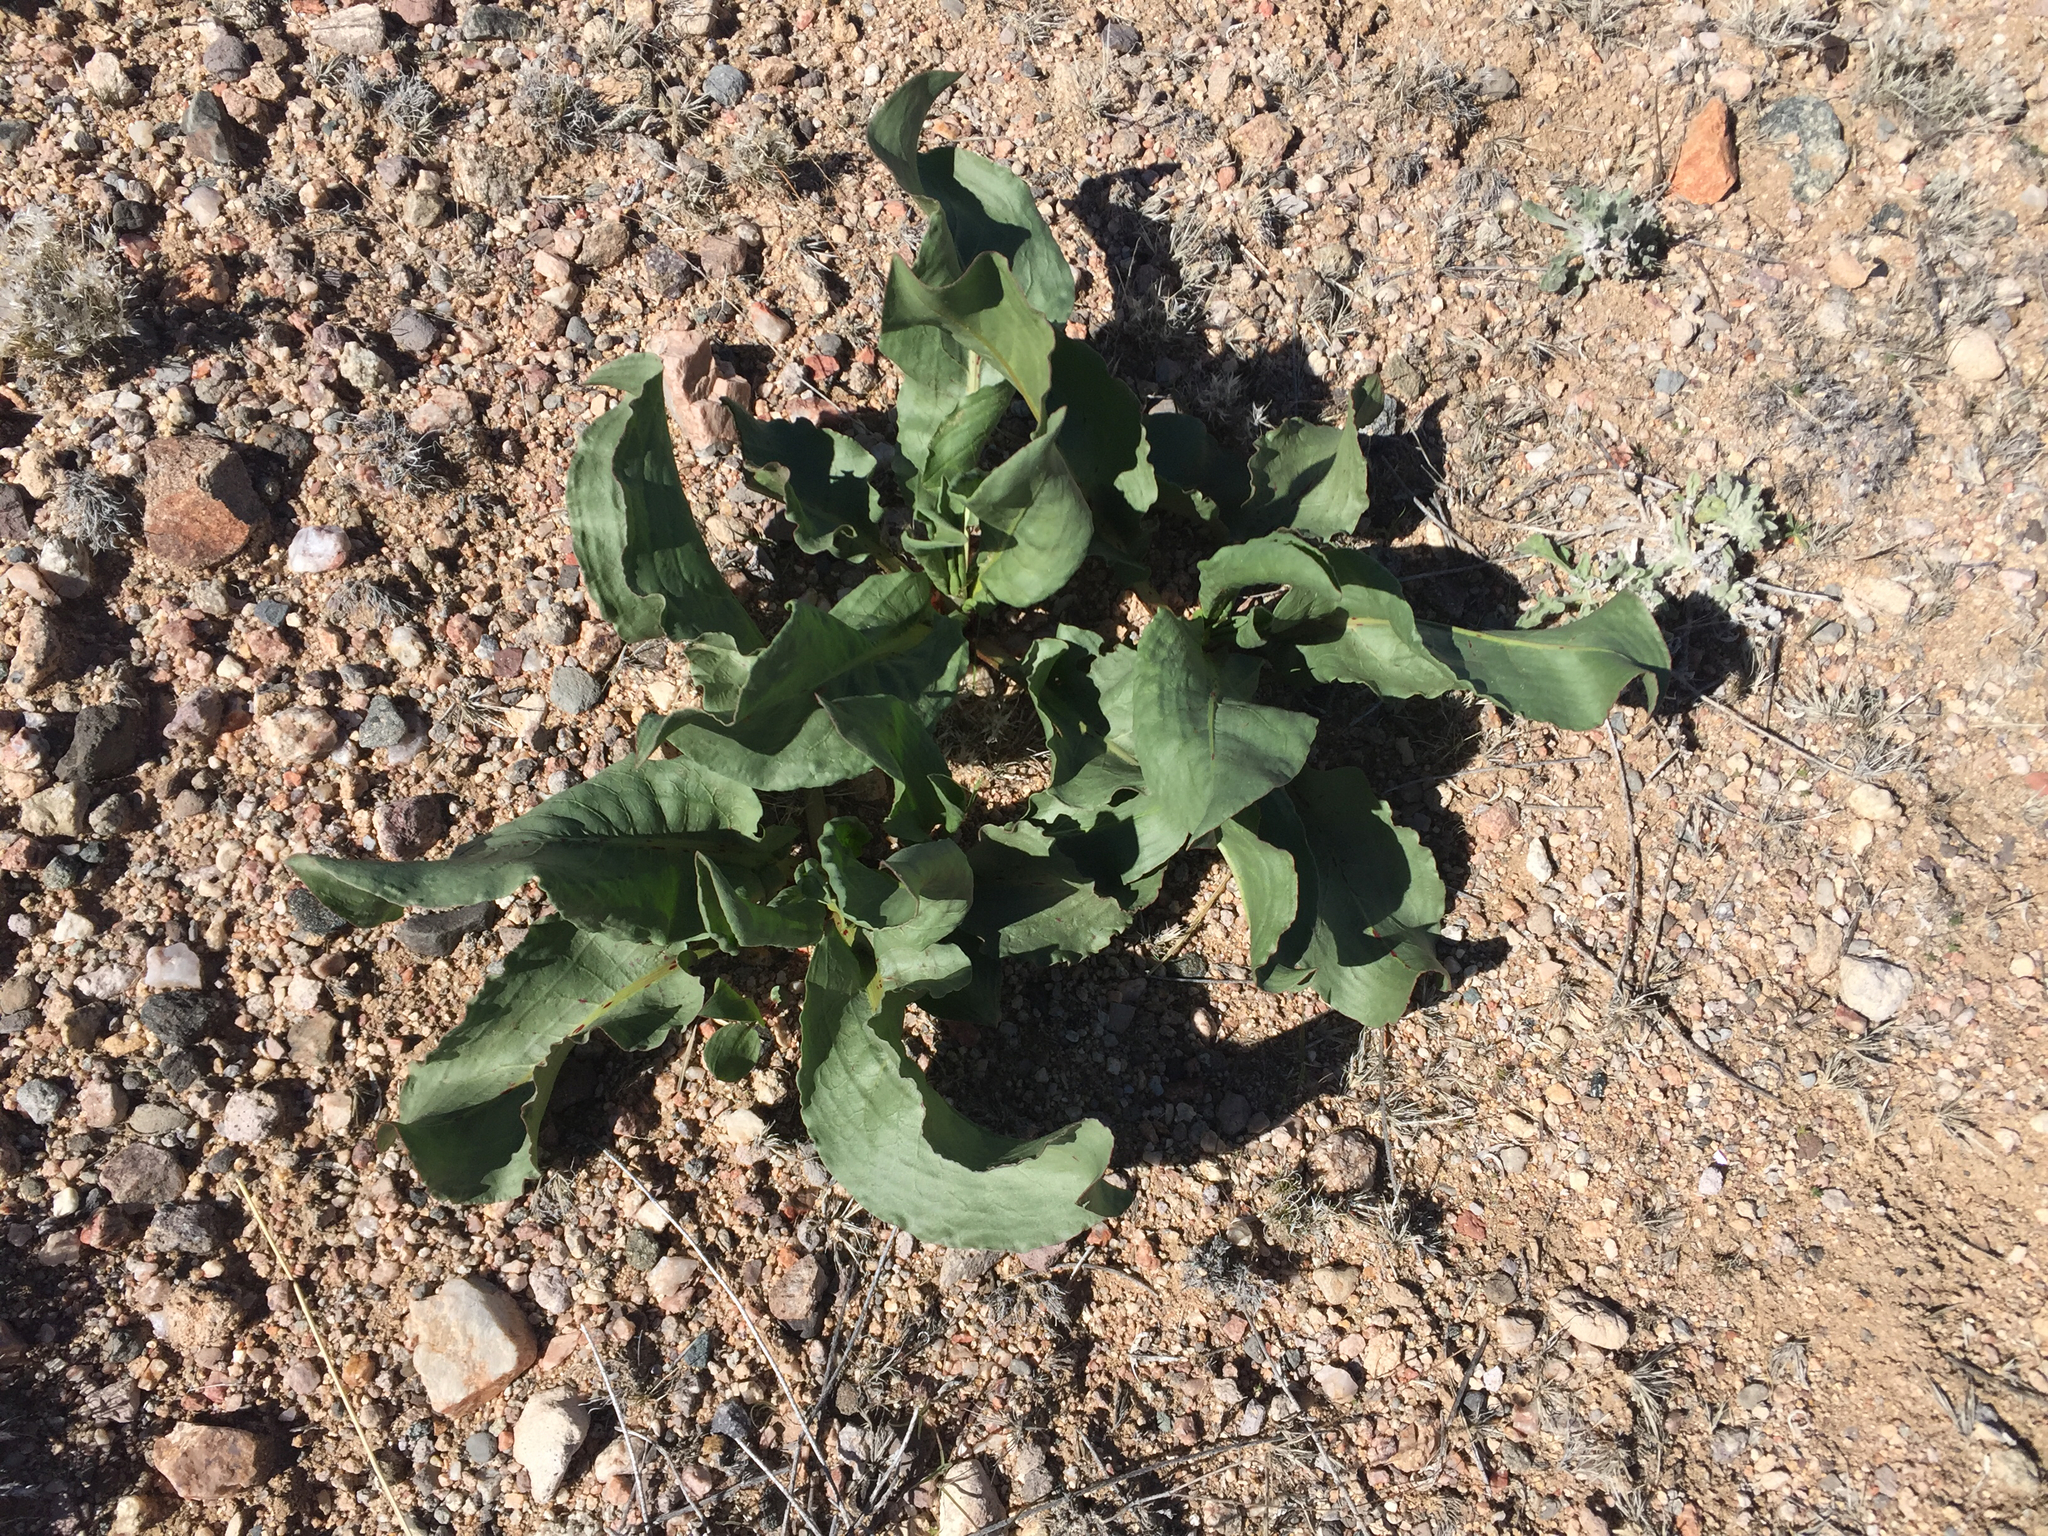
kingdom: Plantae
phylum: Tracheophyta
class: Magnoliopsida
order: Caryophyllales
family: Polygonaceae
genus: Rumex
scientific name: Rumex hymenosepalus
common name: Ganagra
